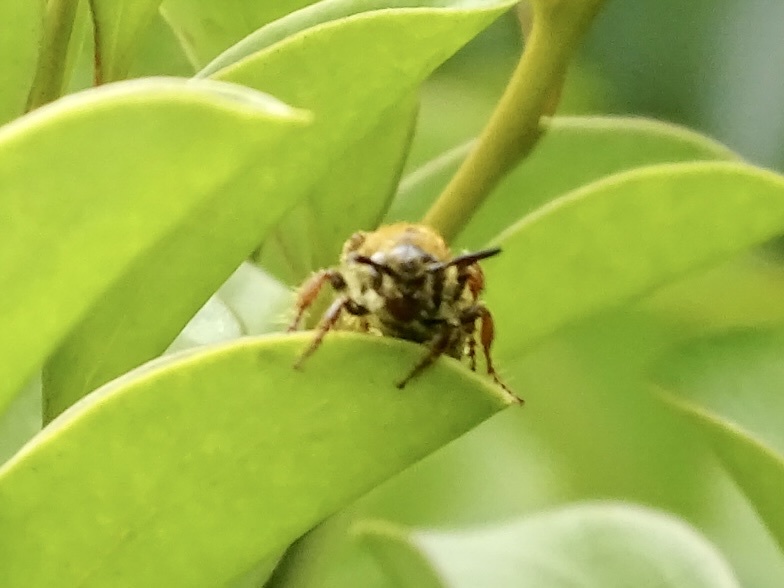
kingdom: Animalia
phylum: Arthropoda
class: Insecta
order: Hymenoptera
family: Scoliidae
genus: Campsomeris
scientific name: Campsomeris phalerata
